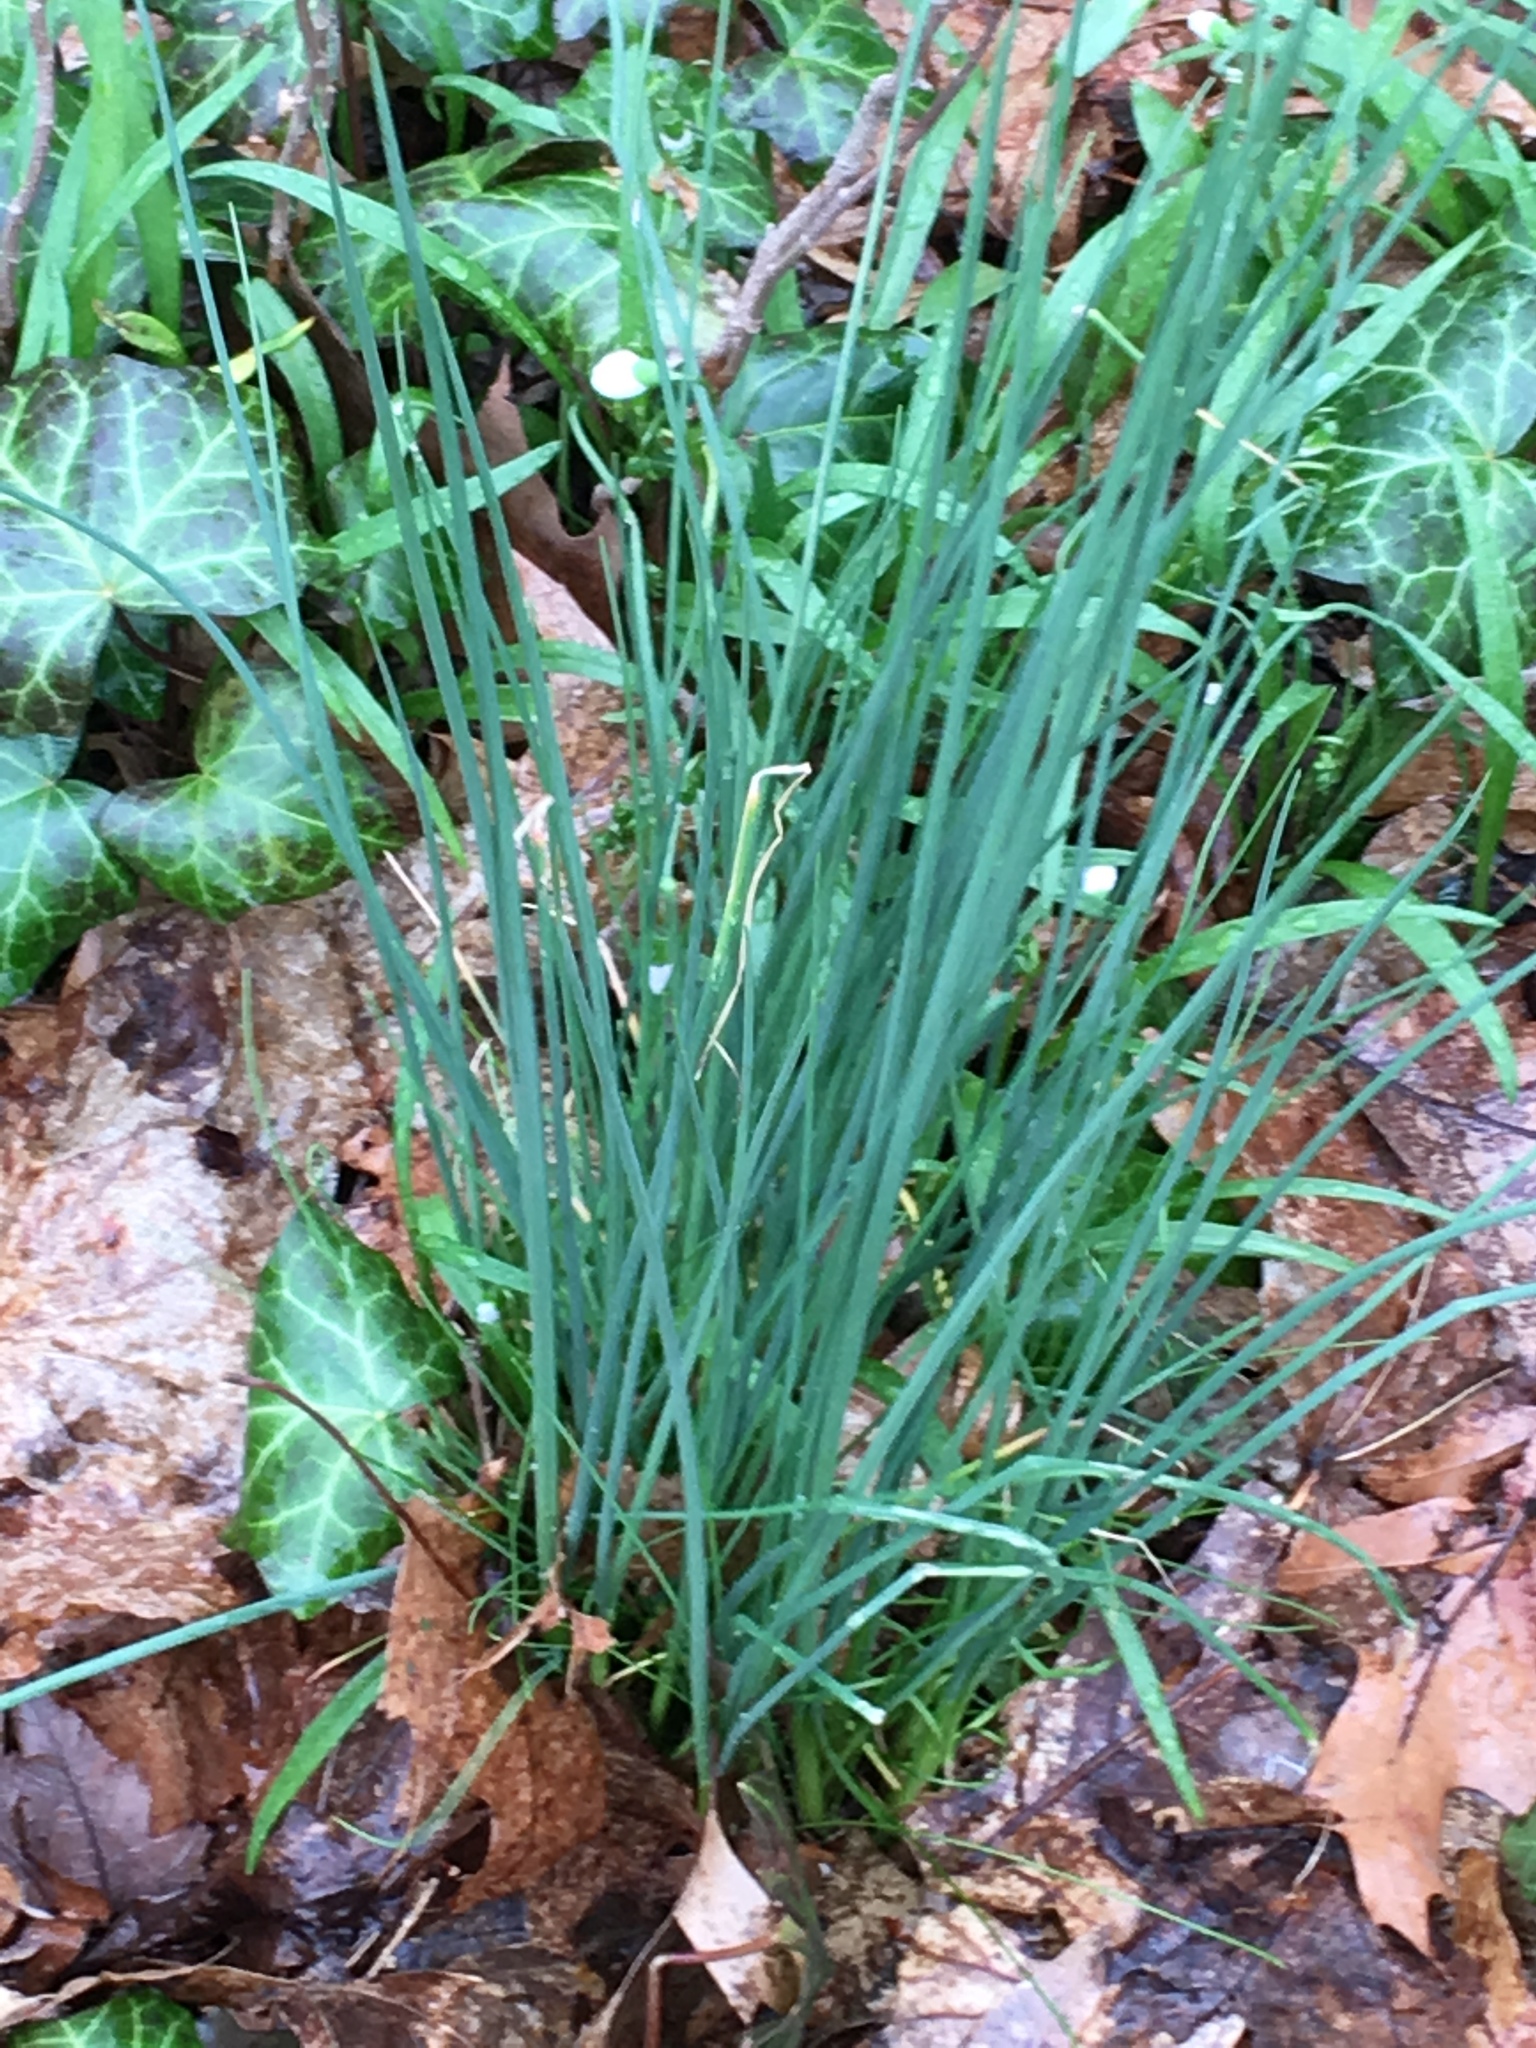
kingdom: Plantae
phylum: Tracheophyta
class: Liliopsida
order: Asparagales
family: Amaryllidaceae
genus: Allium
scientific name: Allium vineale
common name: Crow garlic
